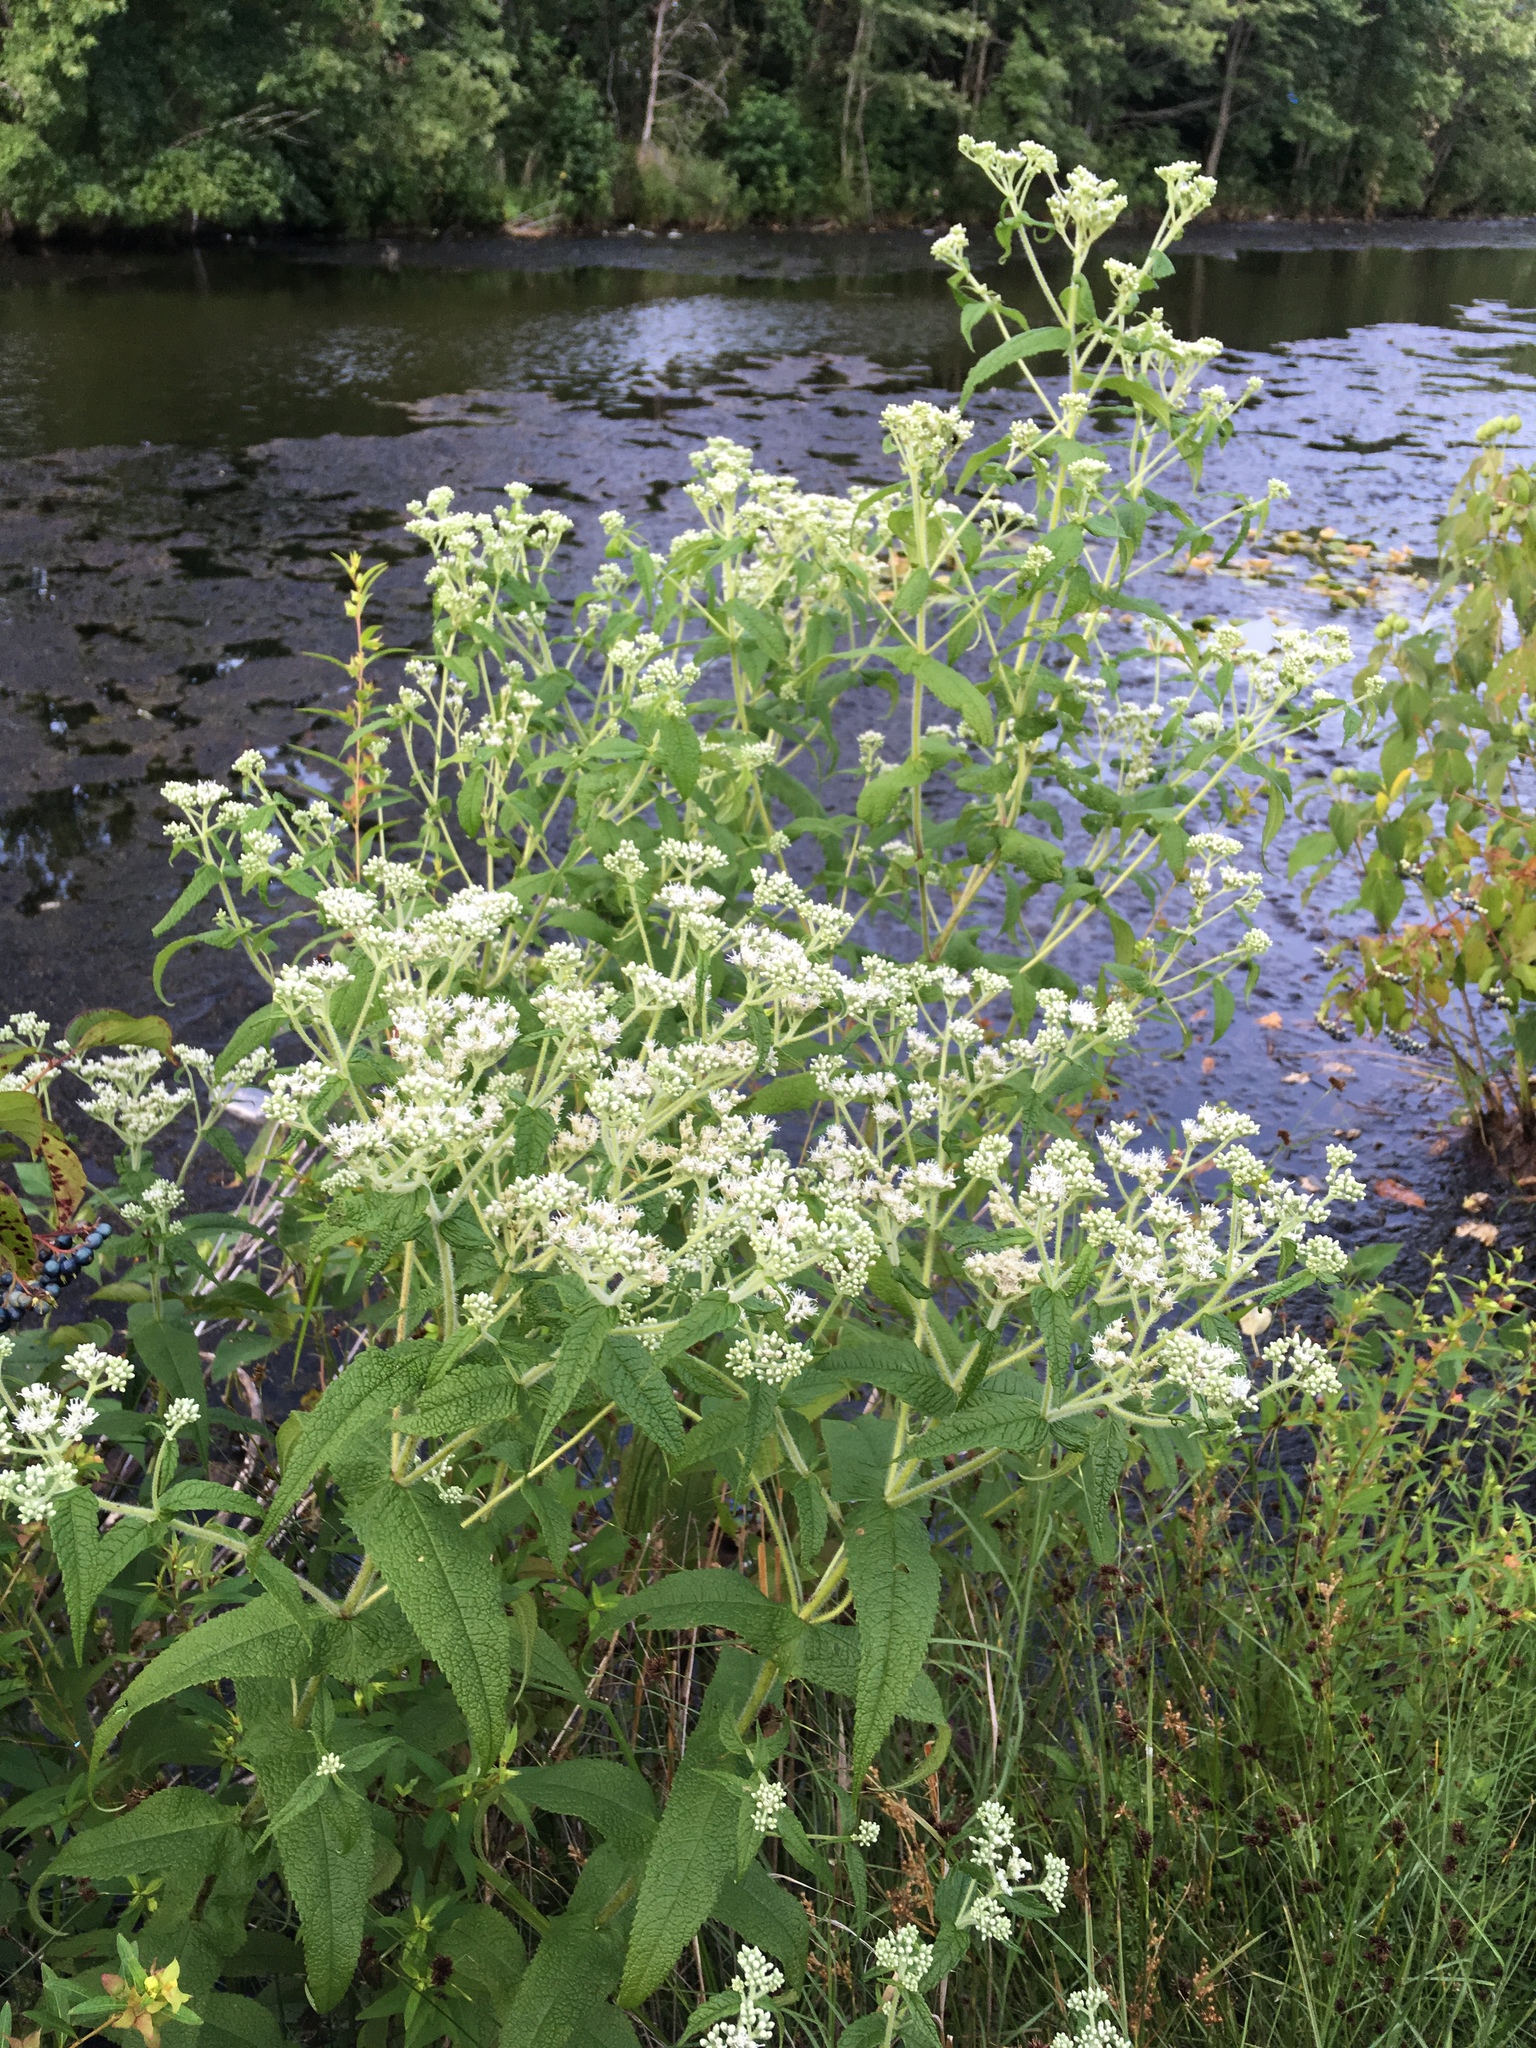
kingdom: Plantae
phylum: Tracheophyta
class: Magnoliopsida
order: Asterales
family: Asteraceae
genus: Eupatorium
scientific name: Eupatorium perfoliatum
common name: Boneset
